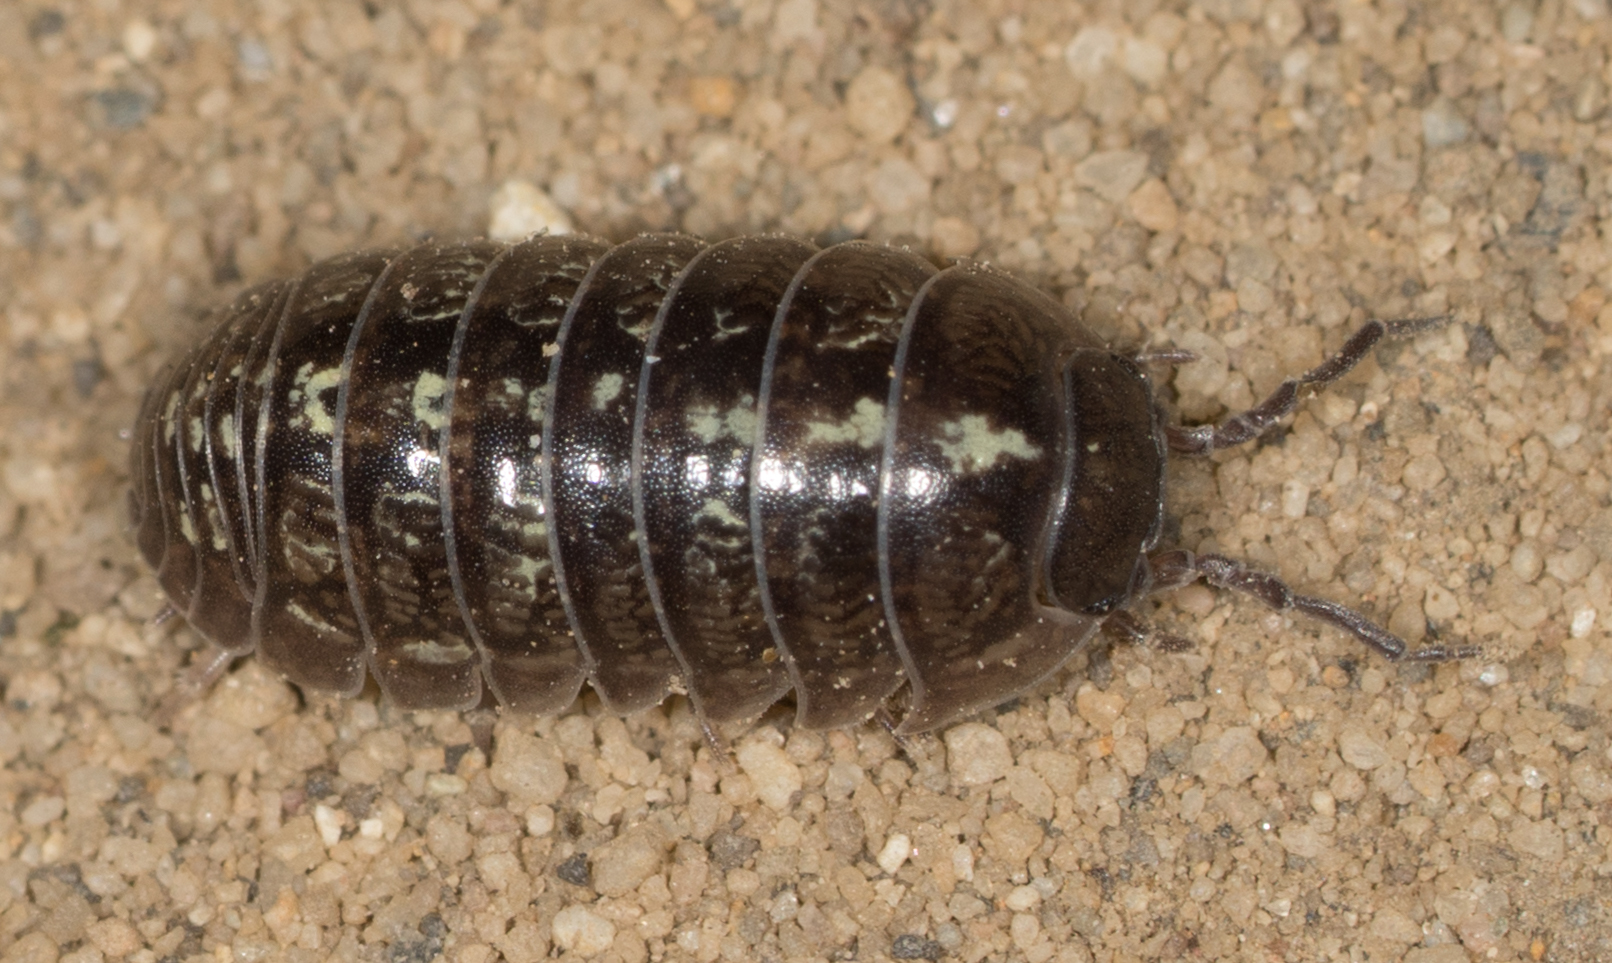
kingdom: Animalia
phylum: Arthropoda
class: Malacostraca
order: Isopoda
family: Armadillidiidae
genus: Armadillidium
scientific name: Armadillidium vulgare
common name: Common pill woodlouse
